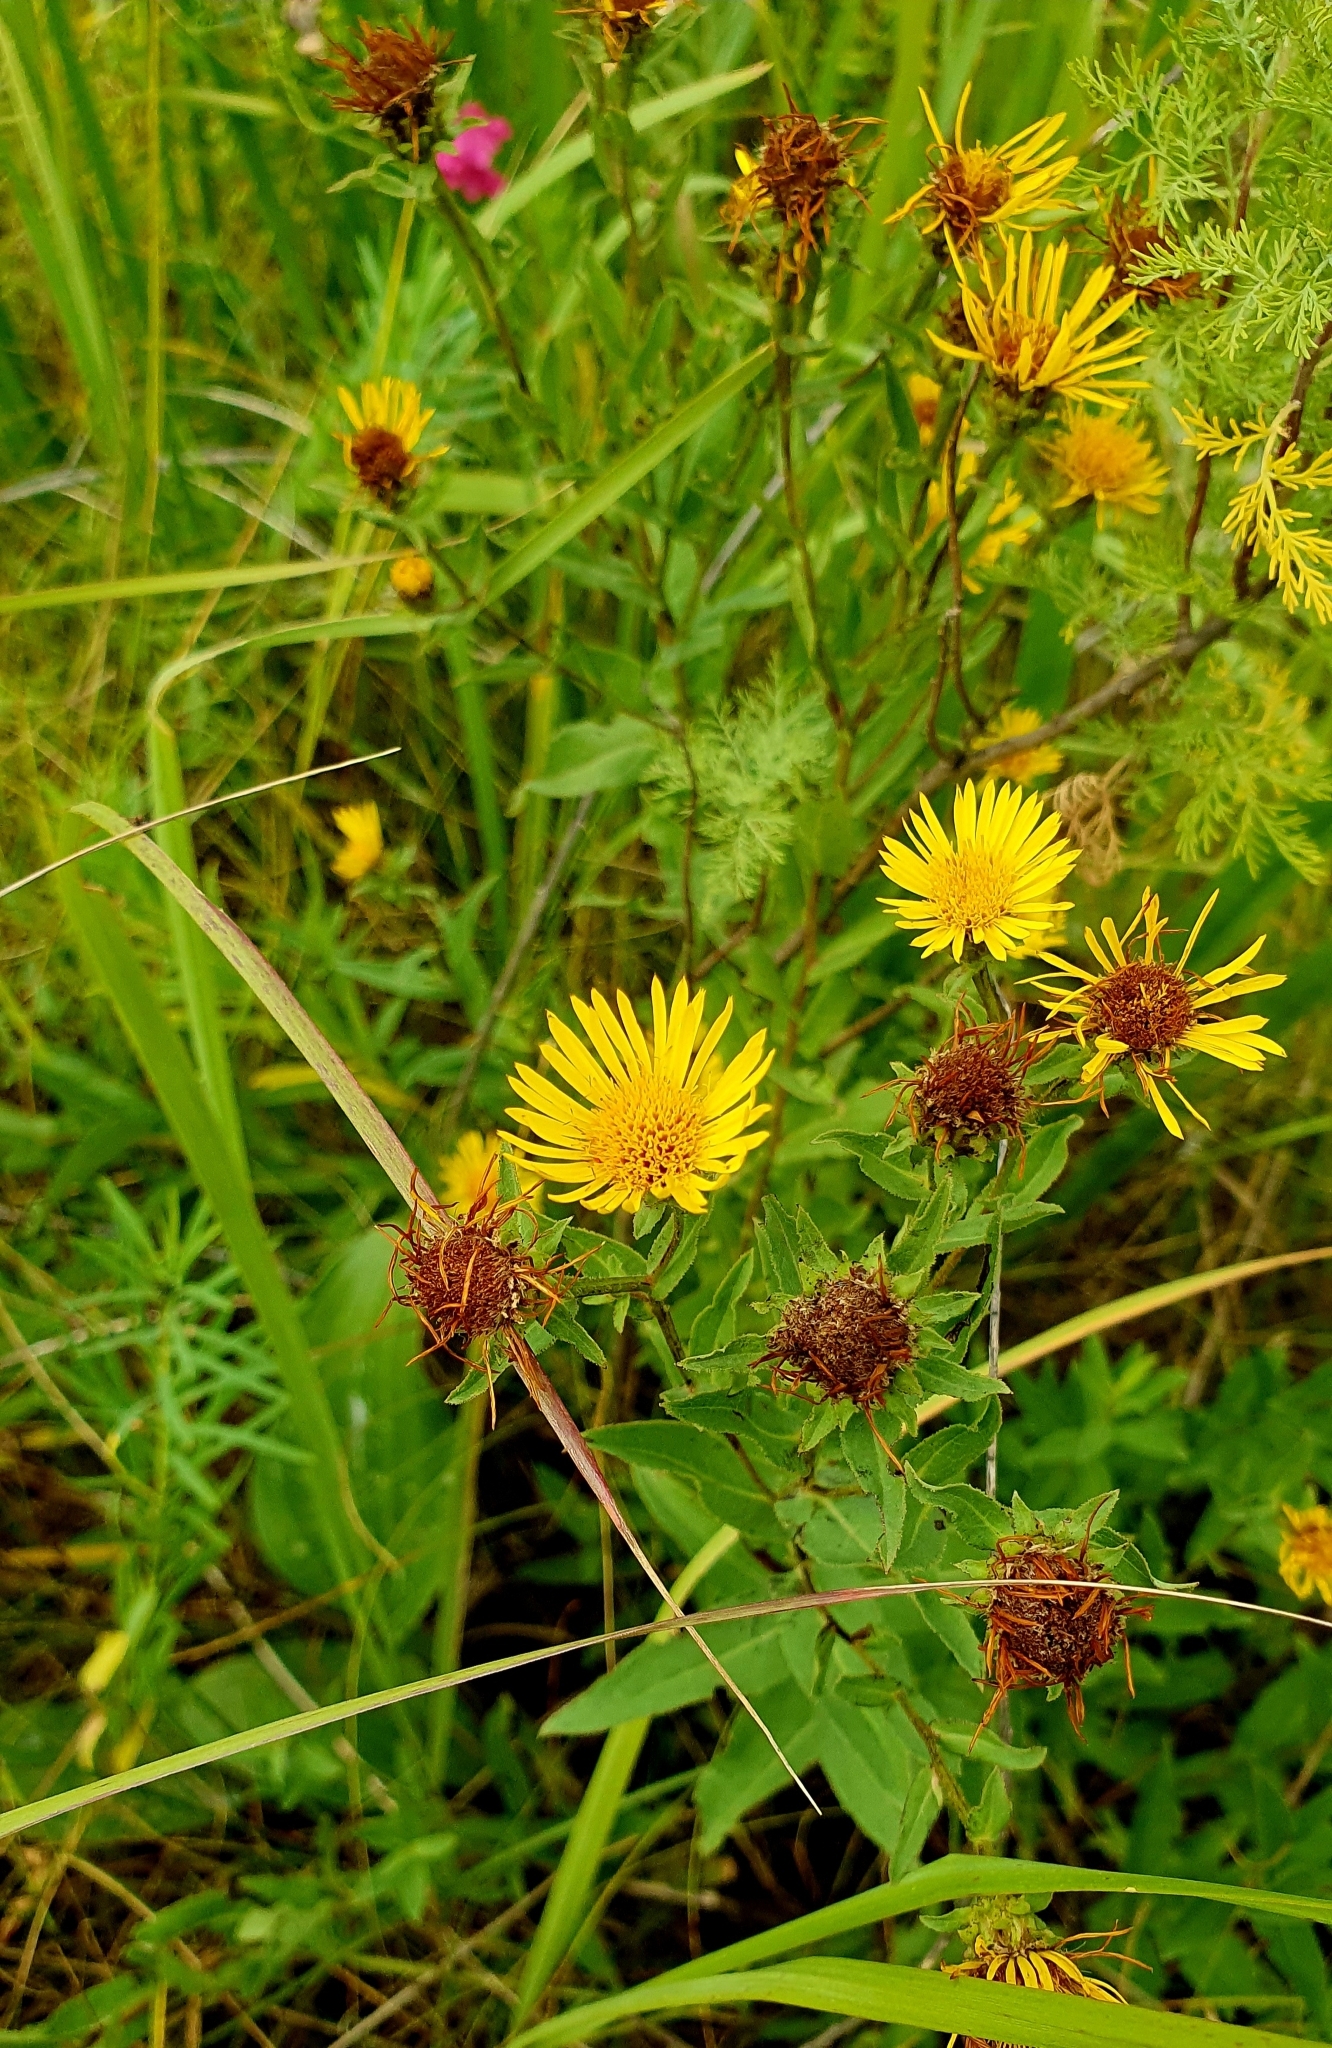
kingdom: Plantae
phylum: Tracheophyta
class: Magnoliopsida
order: Asterales
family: Asteraceae
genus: Pentanema
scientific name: Pentanema salicinum
